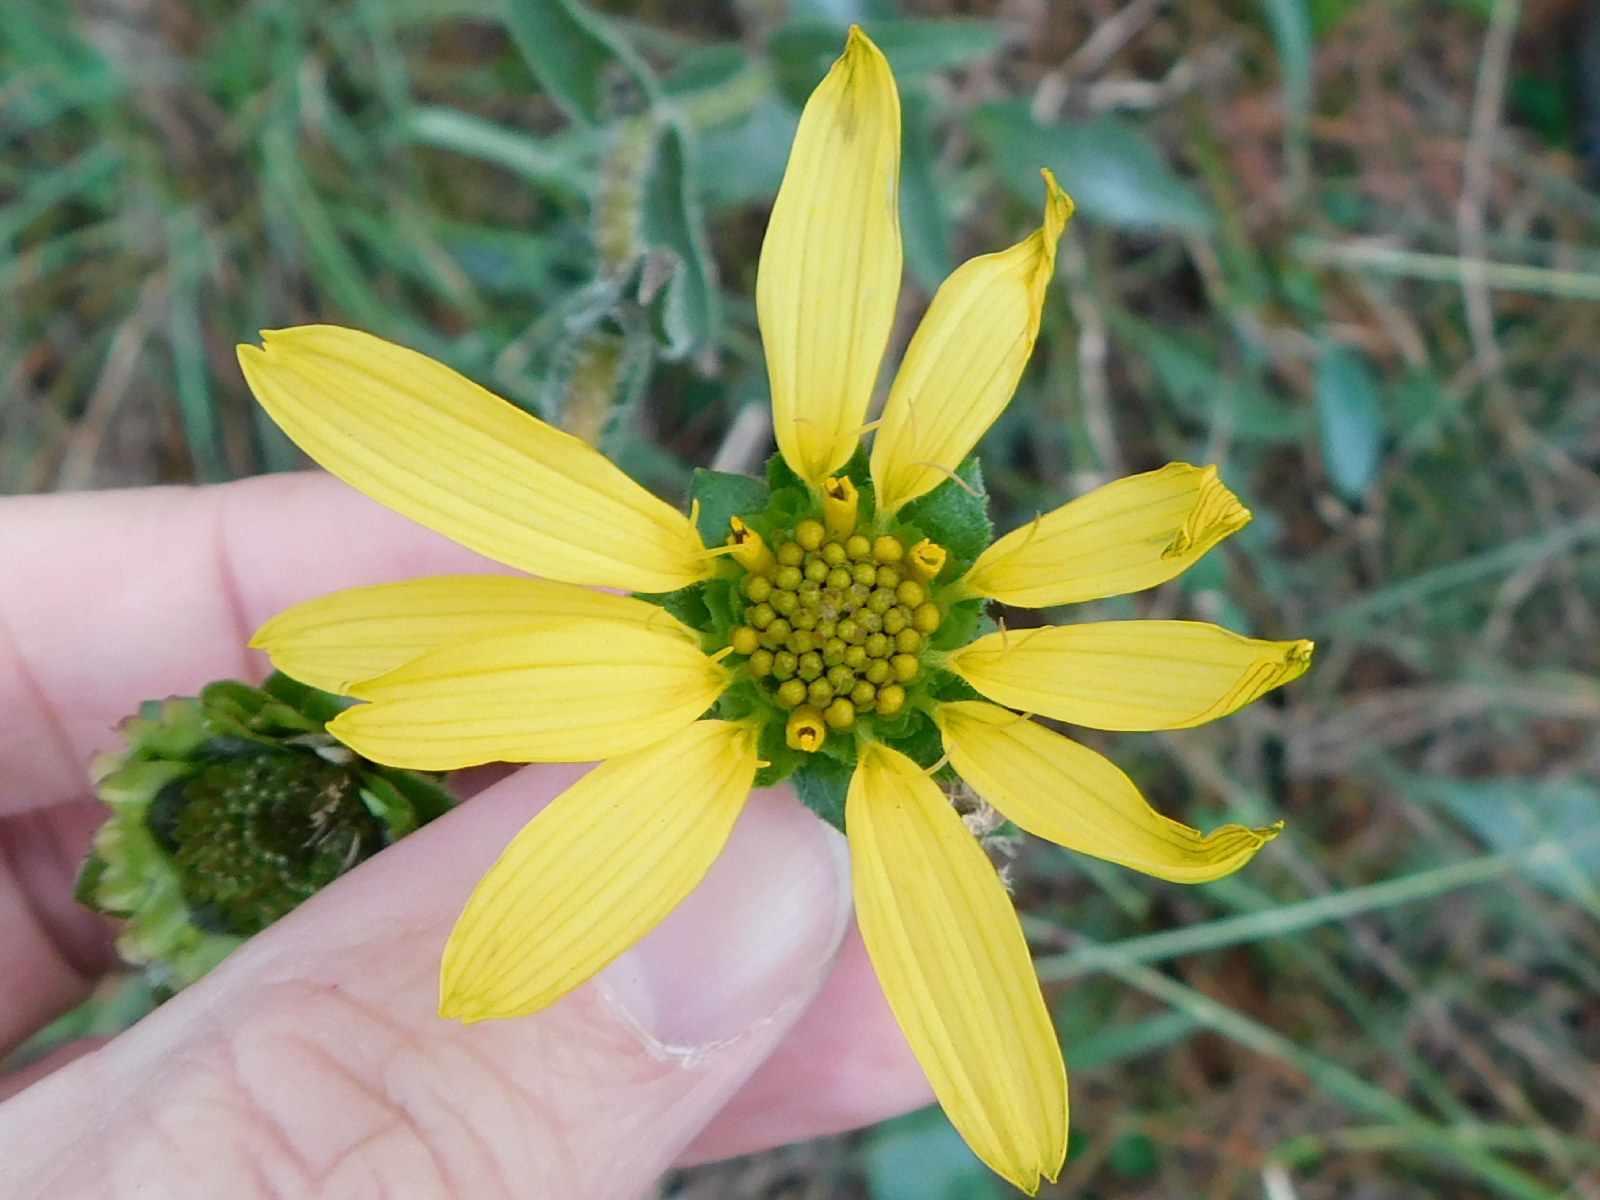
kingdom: Plantae
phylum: Tracheophyta
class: Magnoliopsida
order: Asterales
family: Asteraceae
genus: Silphium
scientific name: Silphium radula
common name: Roughleaf rosinweed
